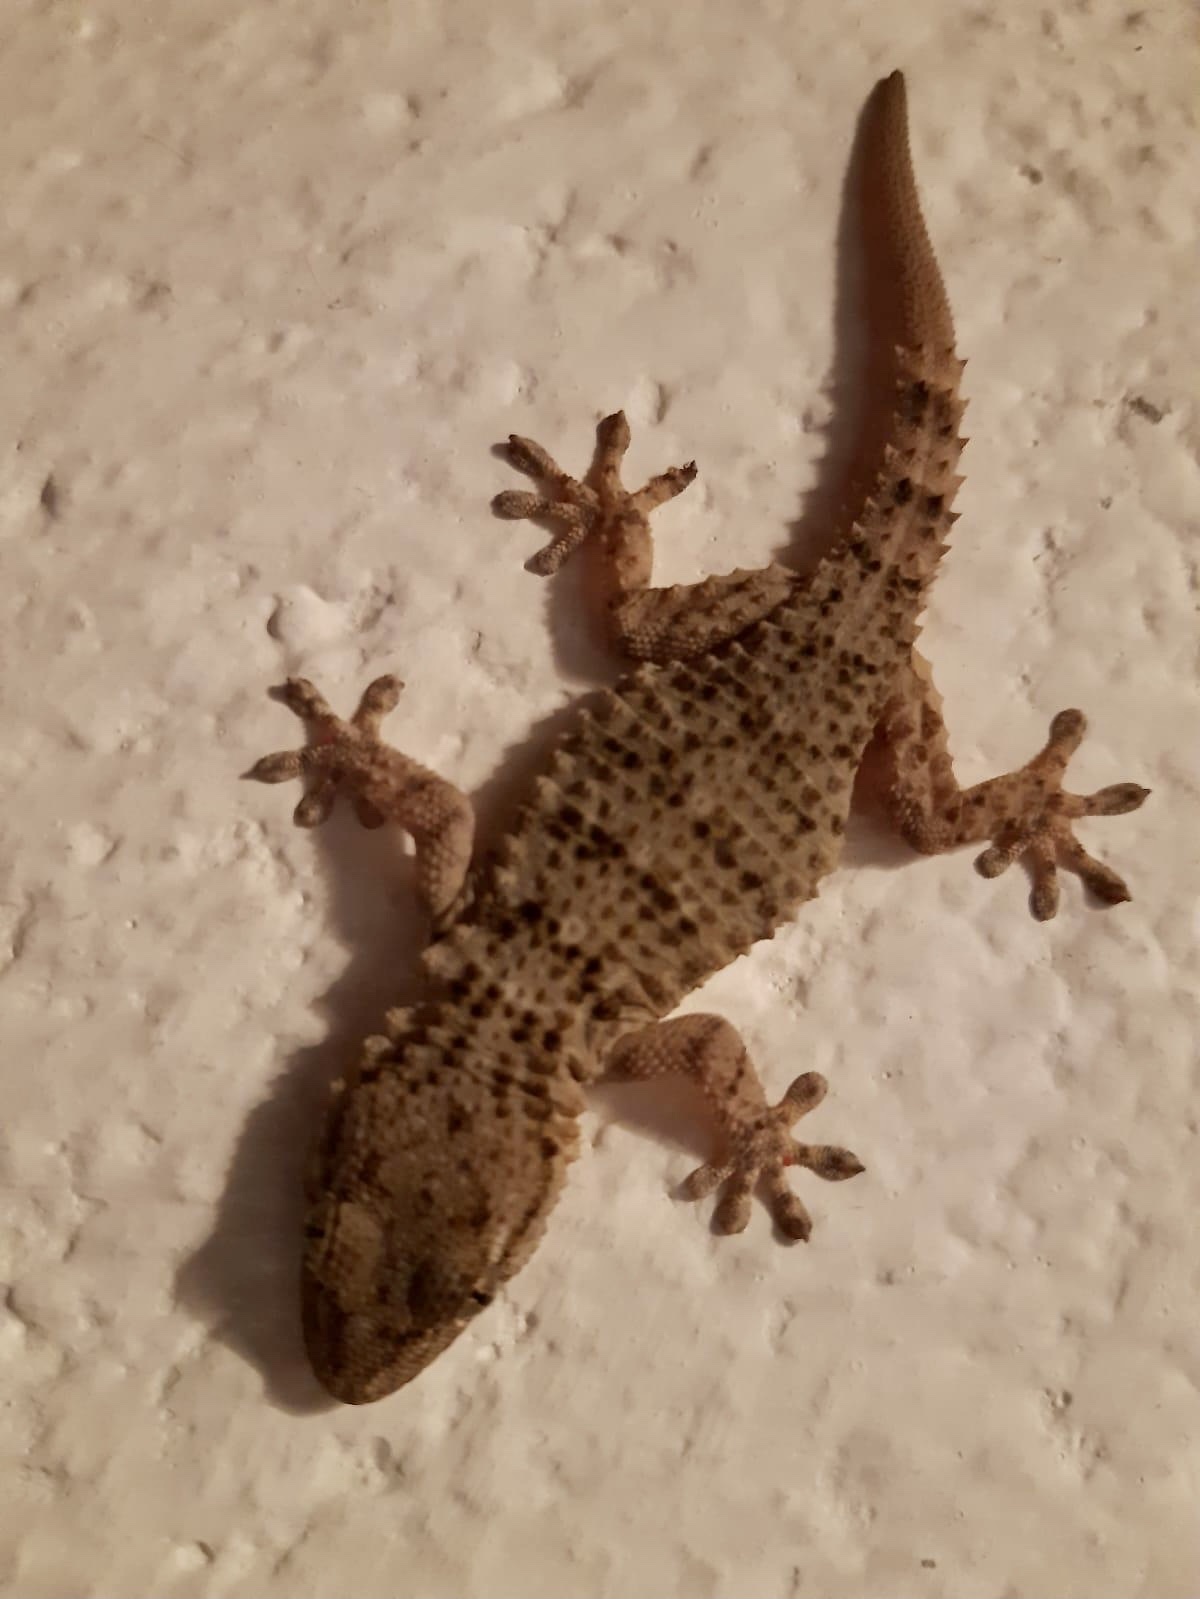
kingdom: Animalia
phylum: Chordata
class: Squamata
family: Phyllodactylidae
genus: Tarentola
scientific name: Tarentola mauritanica
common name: Moorish gecko
